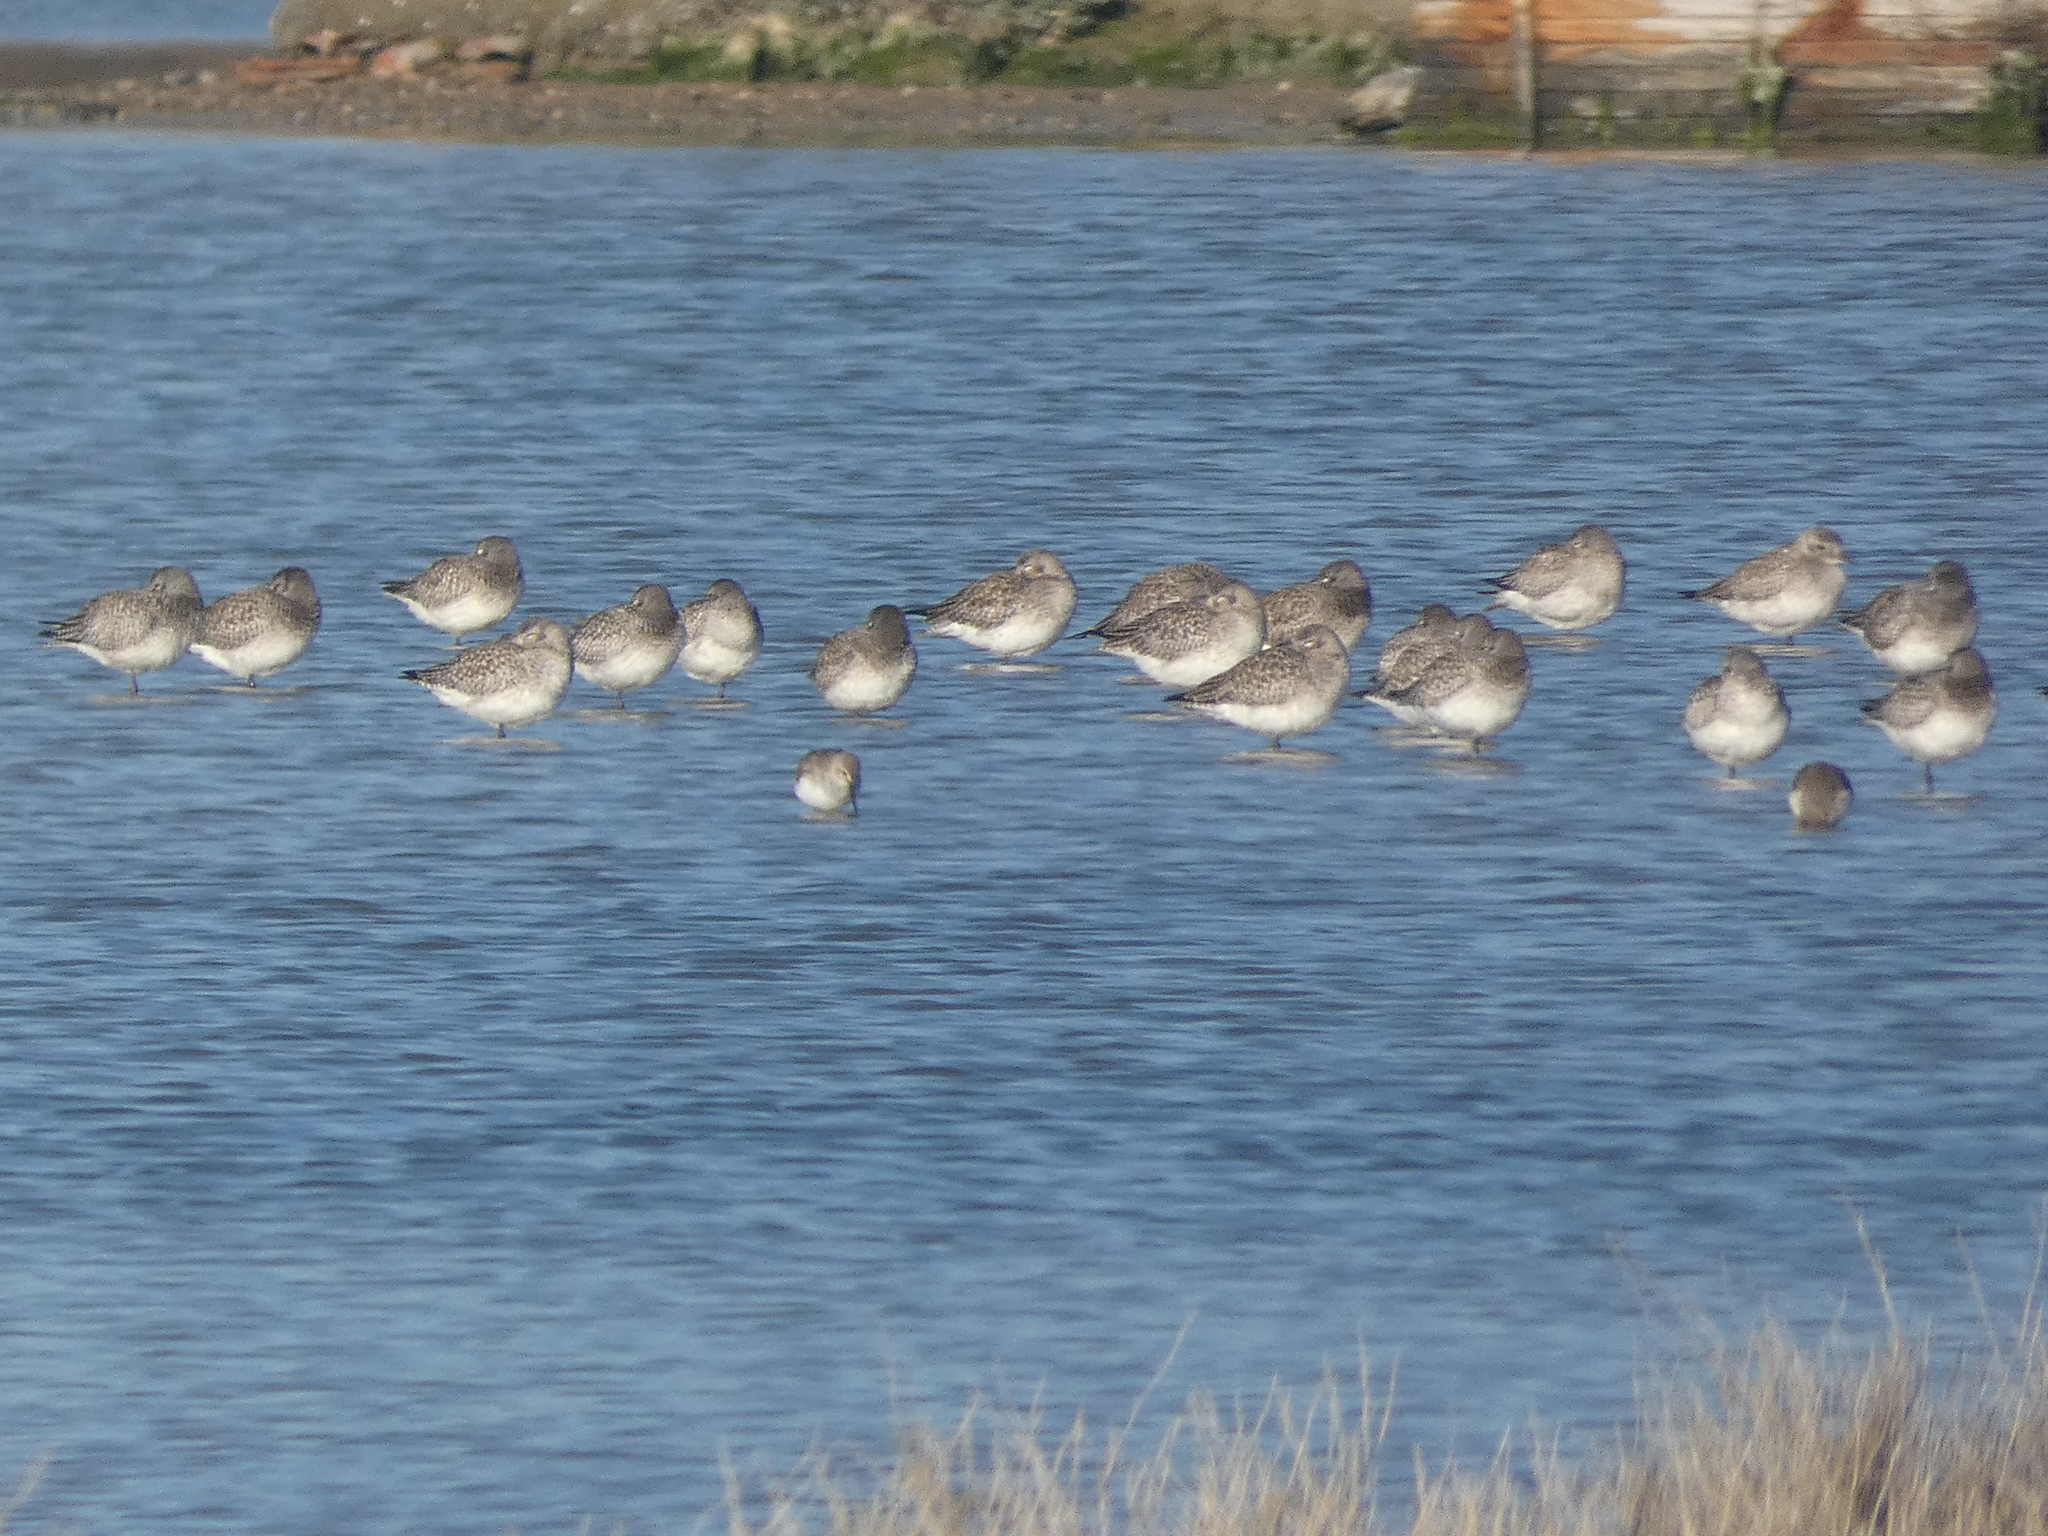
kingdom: Animalia
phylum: Chordata
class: Aves
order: Charadriiformes
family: Charadriidae
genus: Pluvialis
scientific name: Pluvialis squatarola
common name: Grey plover
